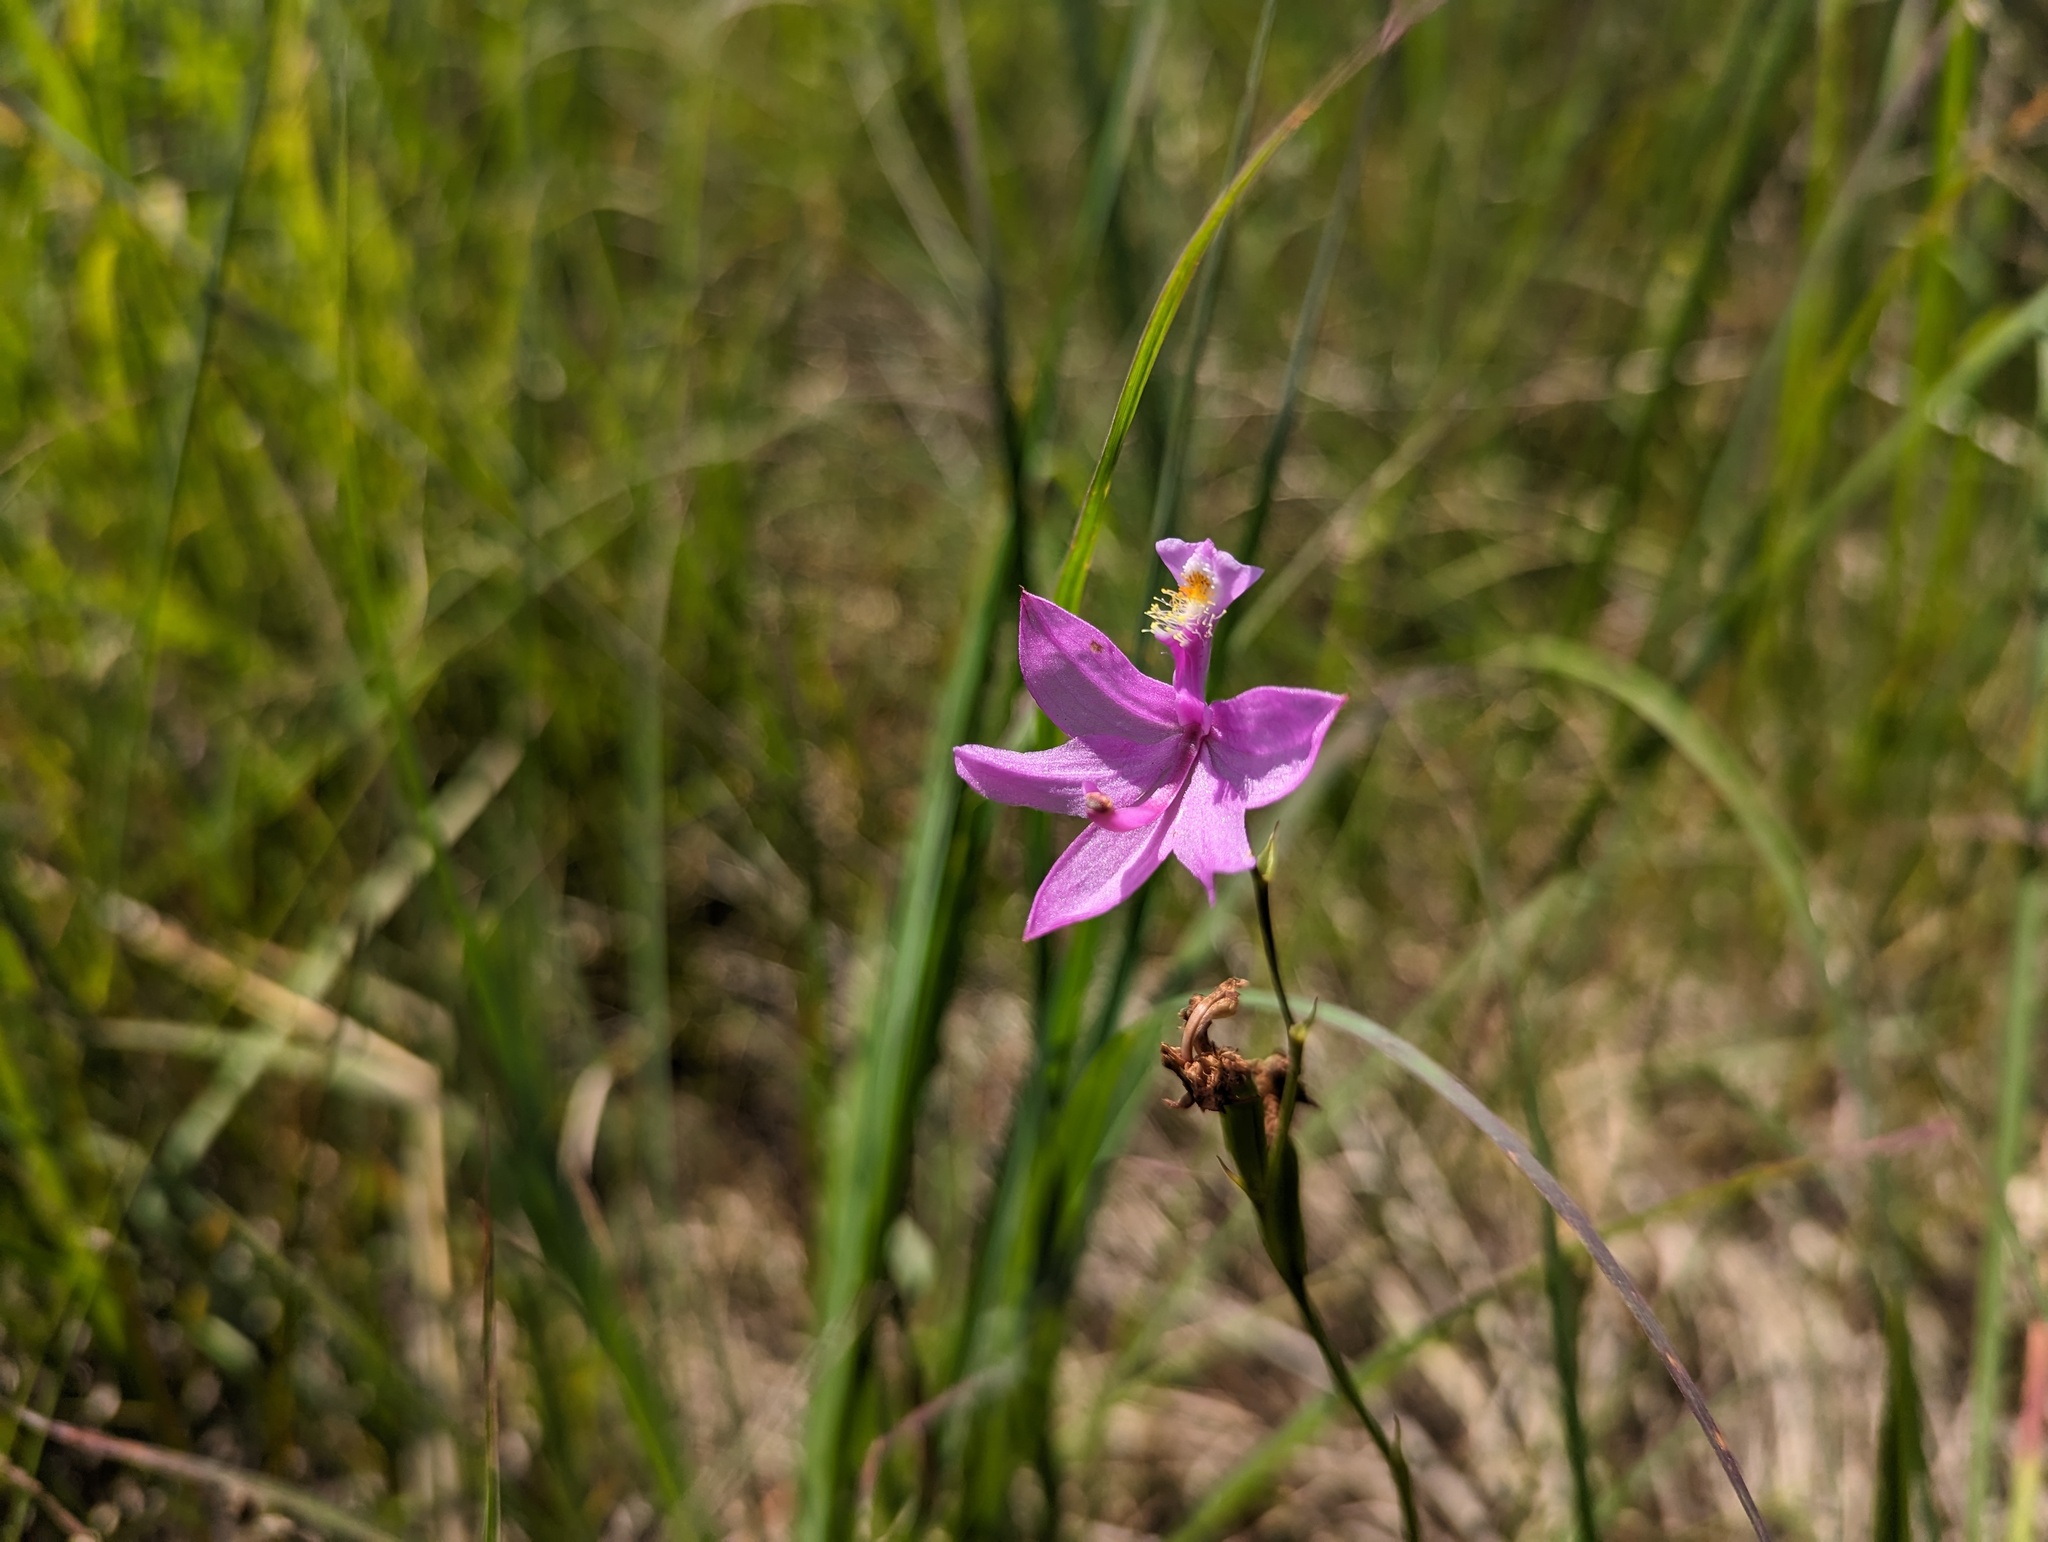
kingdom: Plantae
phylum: Tracheophyta
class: Liliopsida
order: Asparagales
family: Orchidaceae
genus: Calopogon
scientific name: Calopogon tuberosus
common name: Grass-pink
